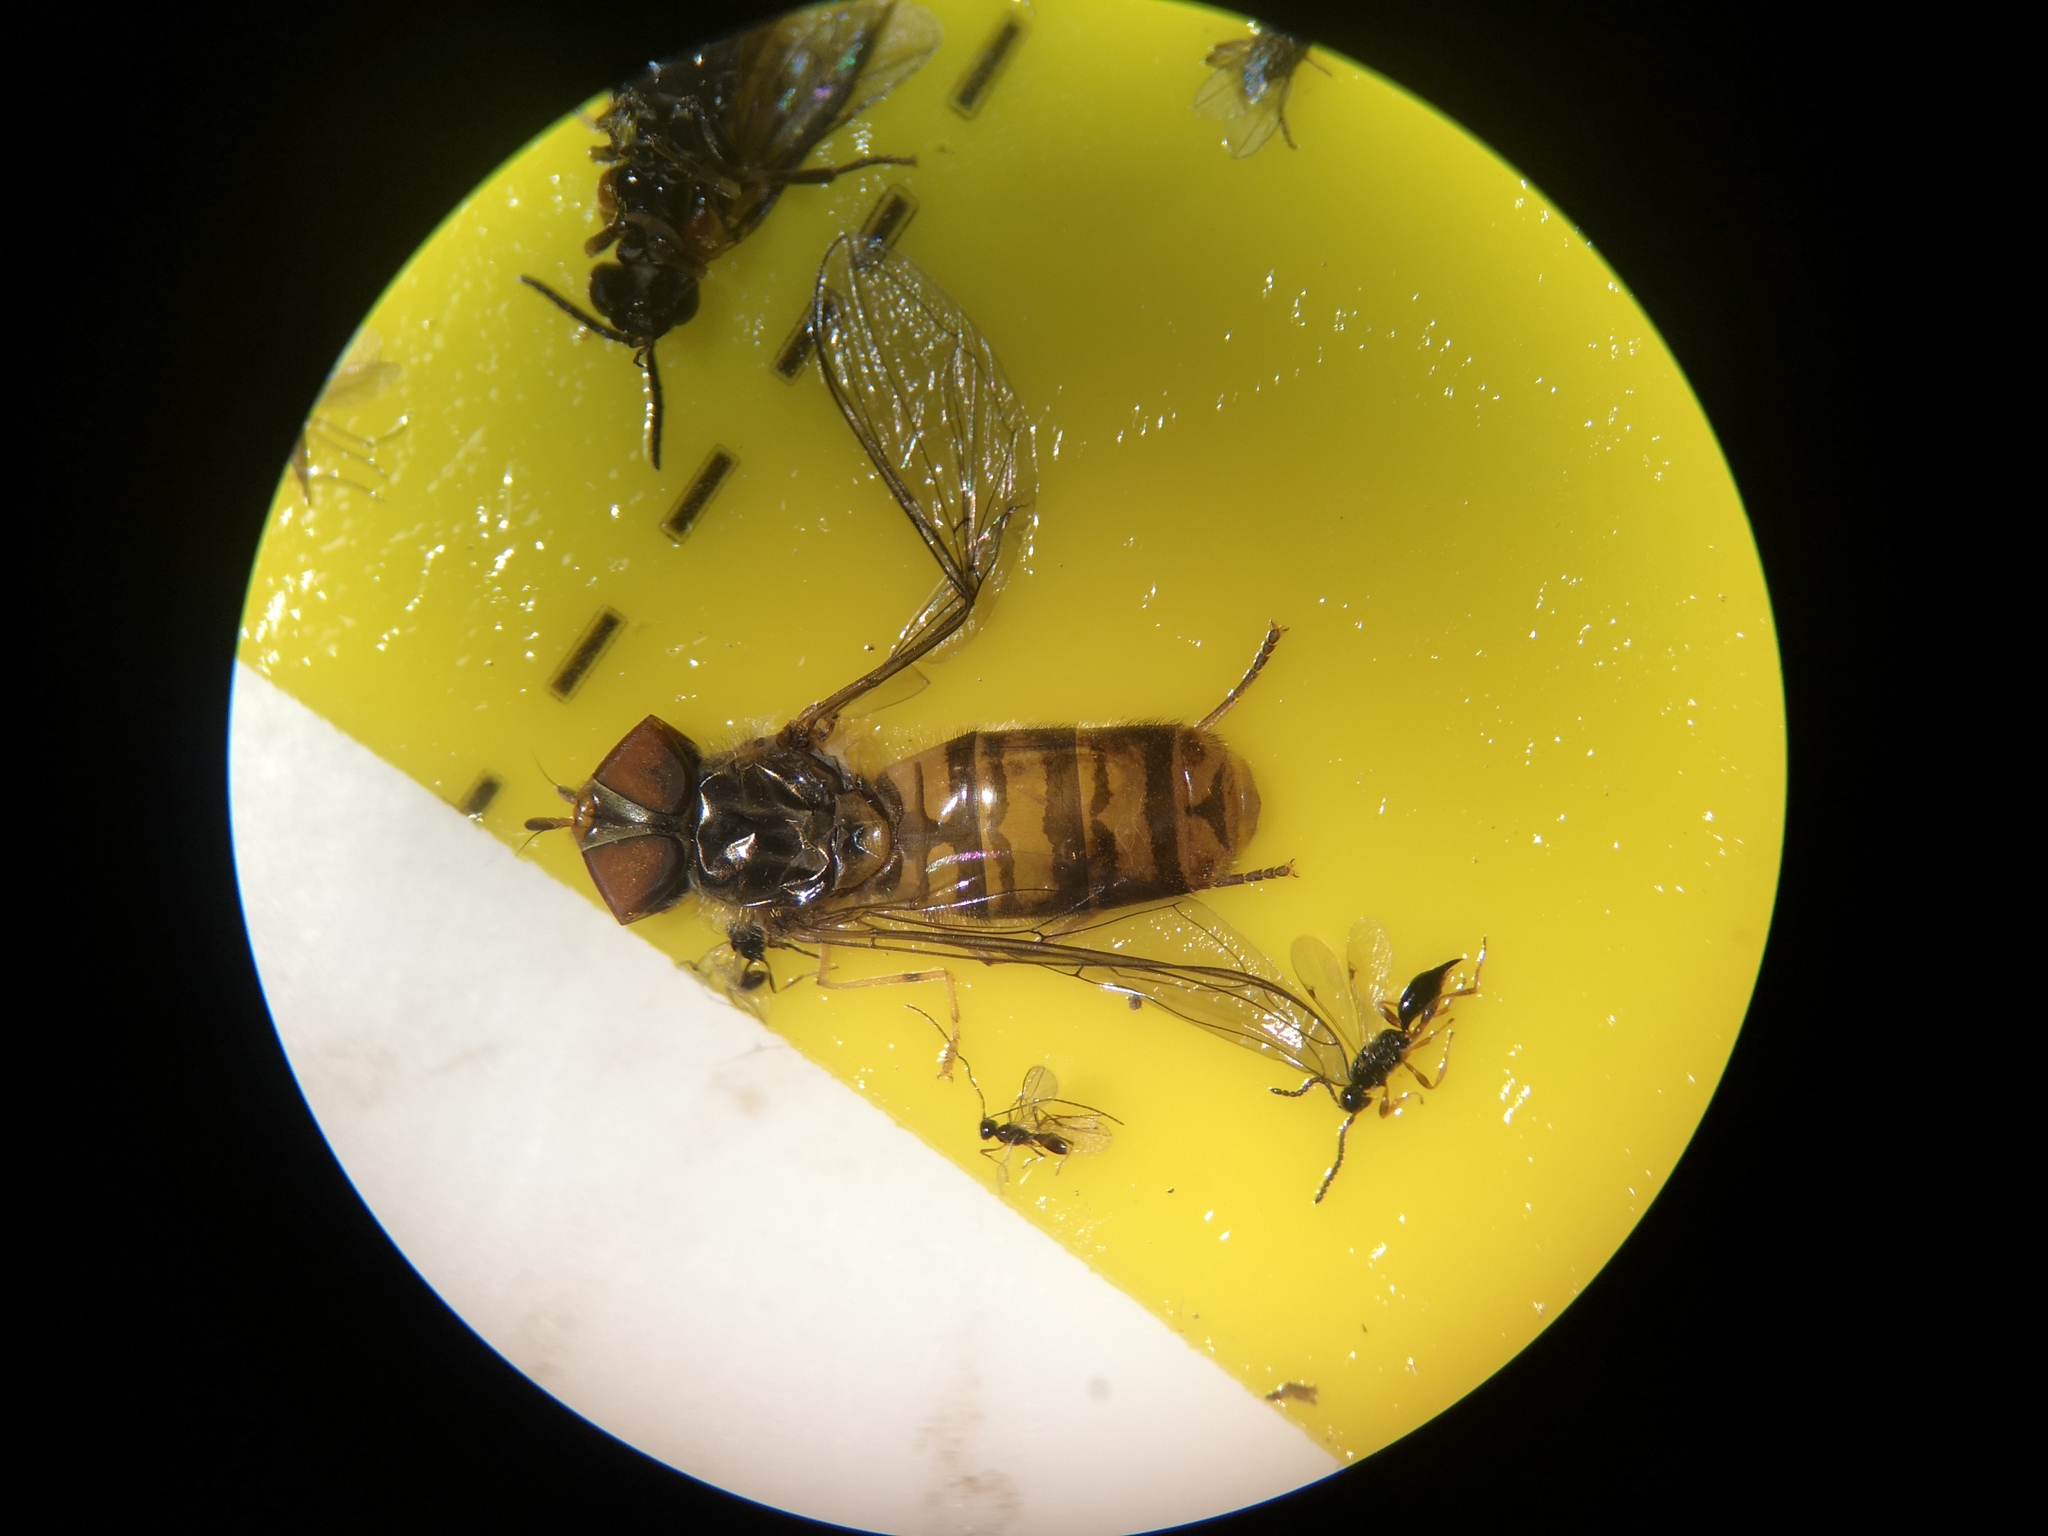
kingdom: Animalia
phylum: Arthropoda
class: Insecta
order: Diptera
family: Syrphidae
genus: Episyrphus
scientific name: Episyrphus balteatus
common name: Marmalade hoverfly
